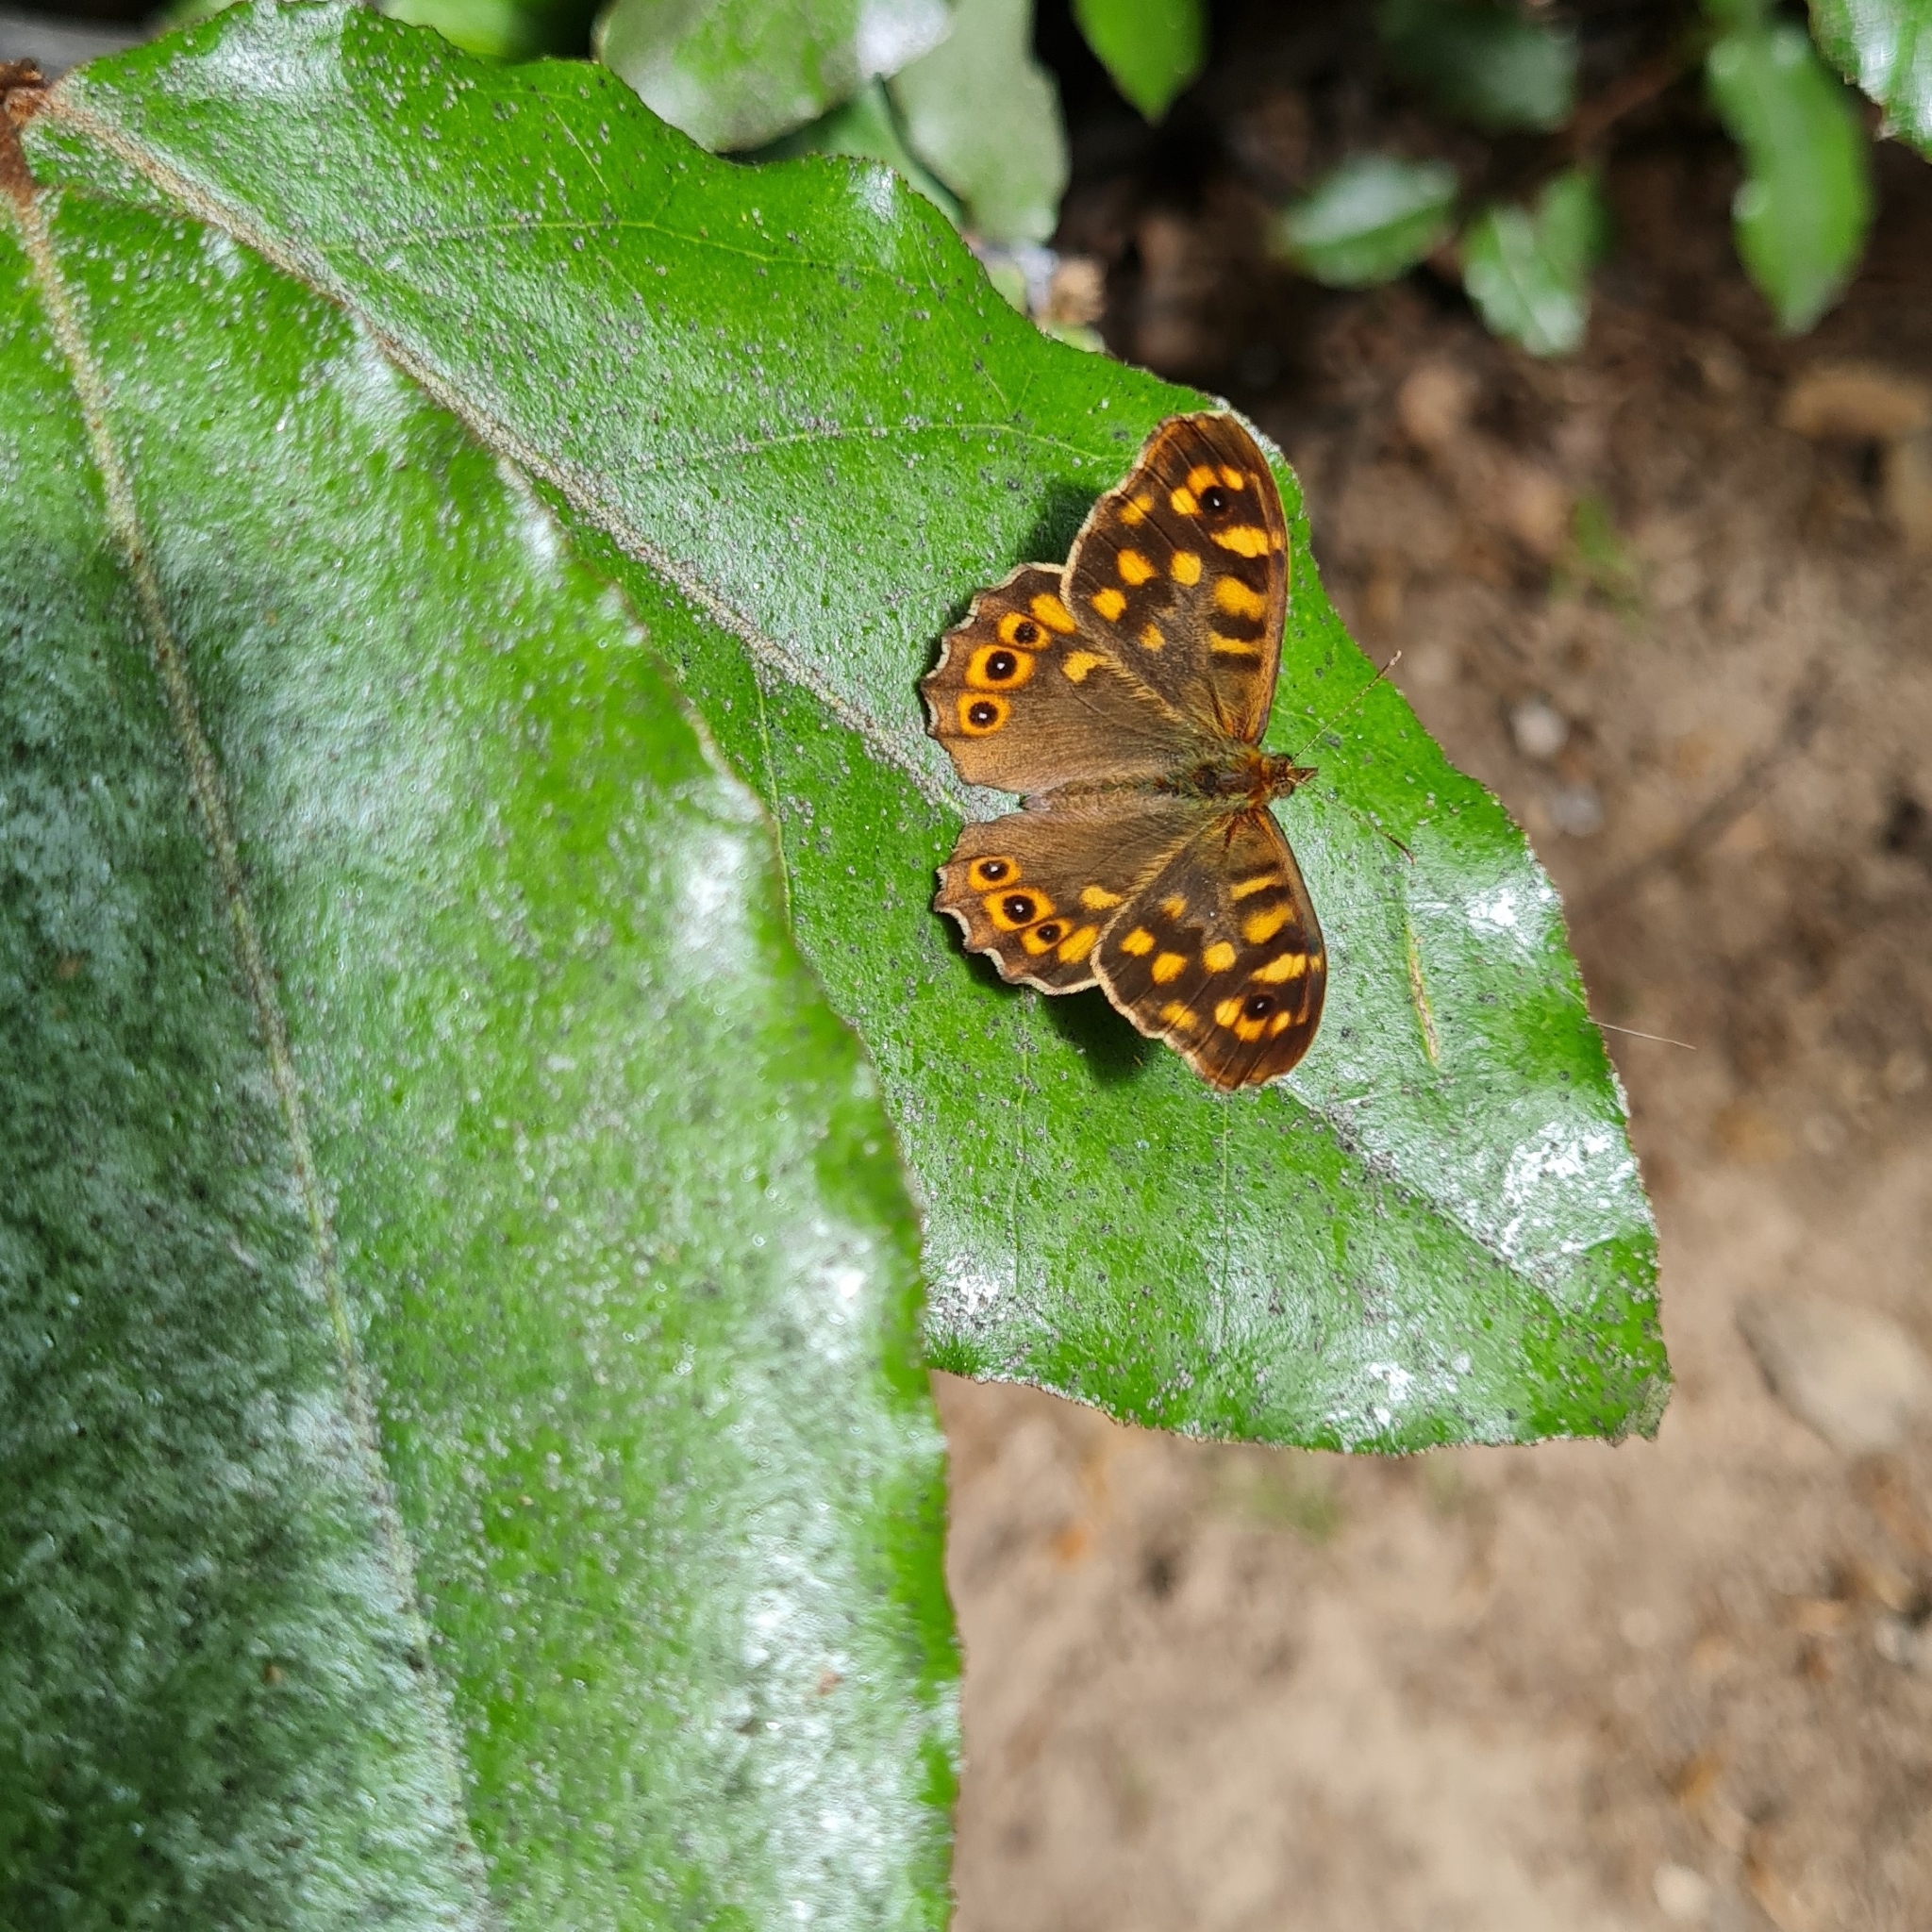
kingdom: Animalia
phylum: Arthropoda
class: Insecta
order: Lepidoptera
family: Nymphalidae
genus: Pararge
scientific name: Pararge aegeria
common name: Speckled wood
